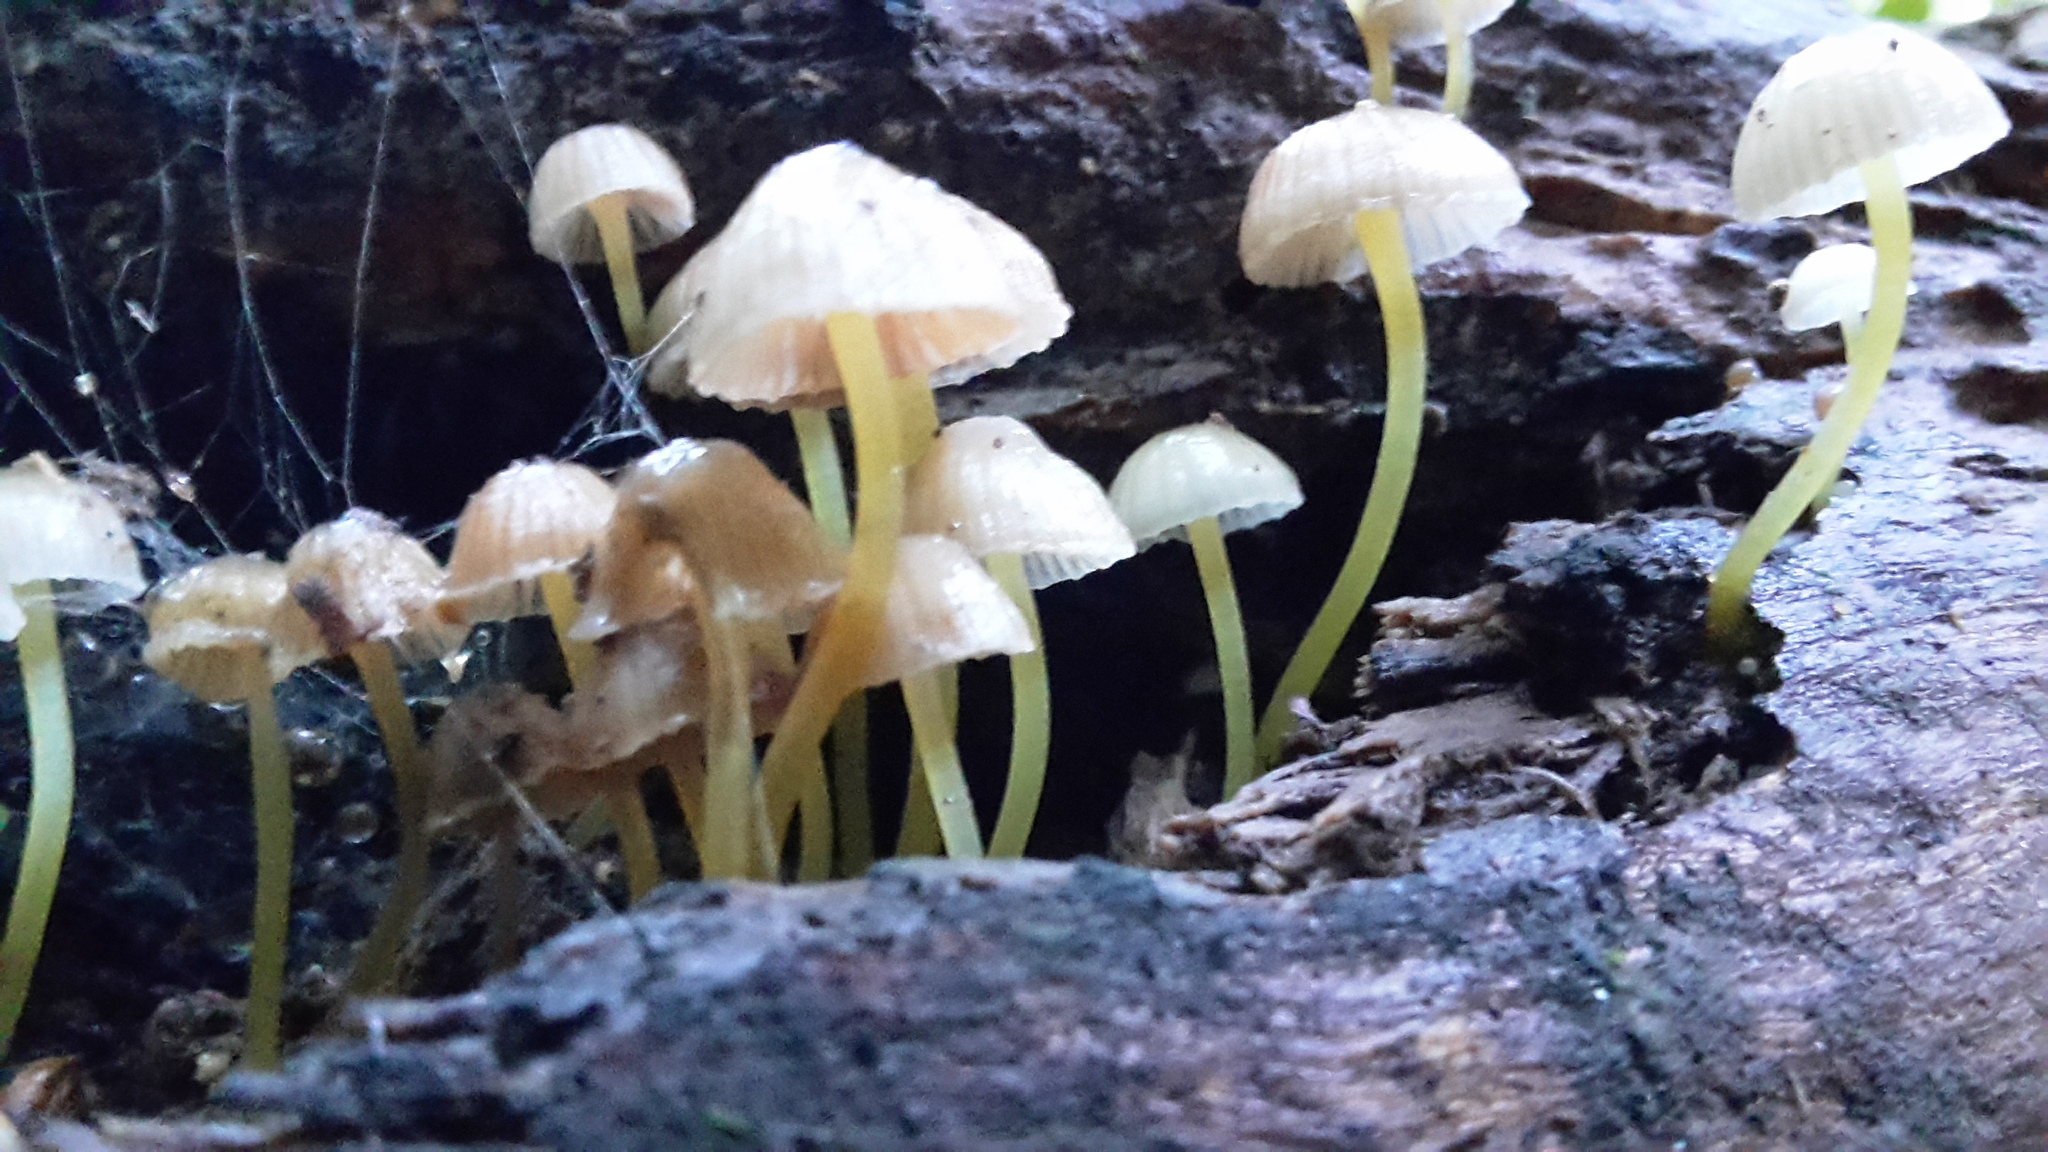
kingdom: Fungi
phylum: Basidiomycota
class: Agaricomycetes
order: Agaricales
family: Mycenaceae
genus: Mycena
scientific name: Mycena subviscosa
